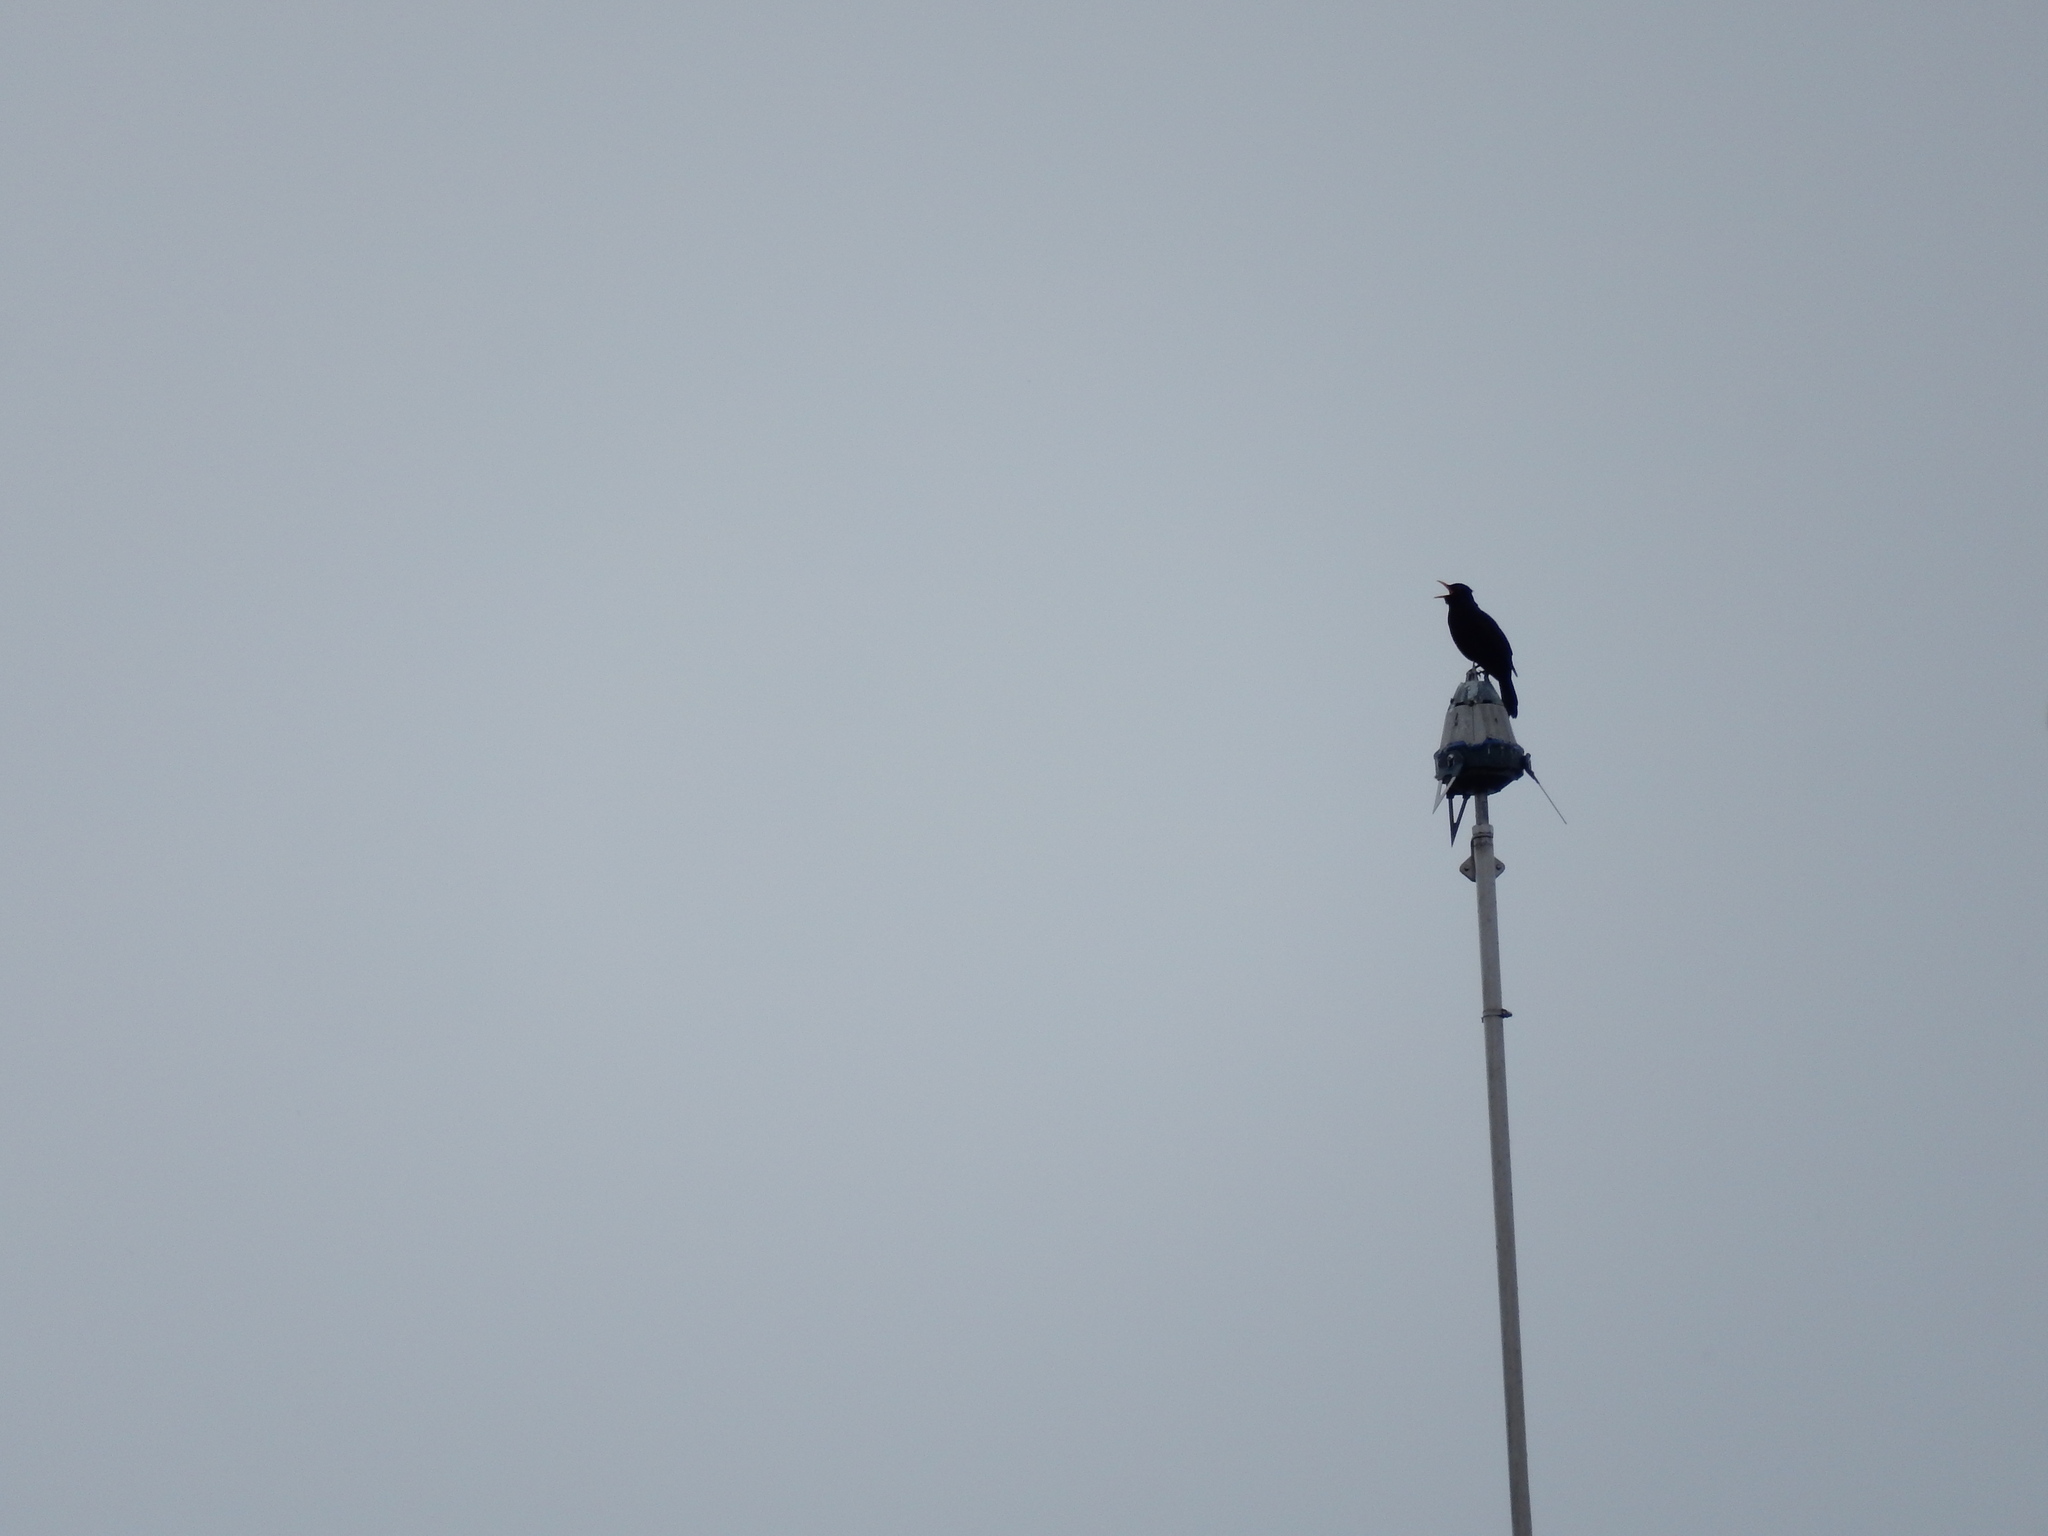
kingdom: Animalia
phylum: Chordata
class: Aves
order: Passeriformes
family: Turdidae
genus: Turdus
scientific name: Turdus merula
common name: Common blackbird
